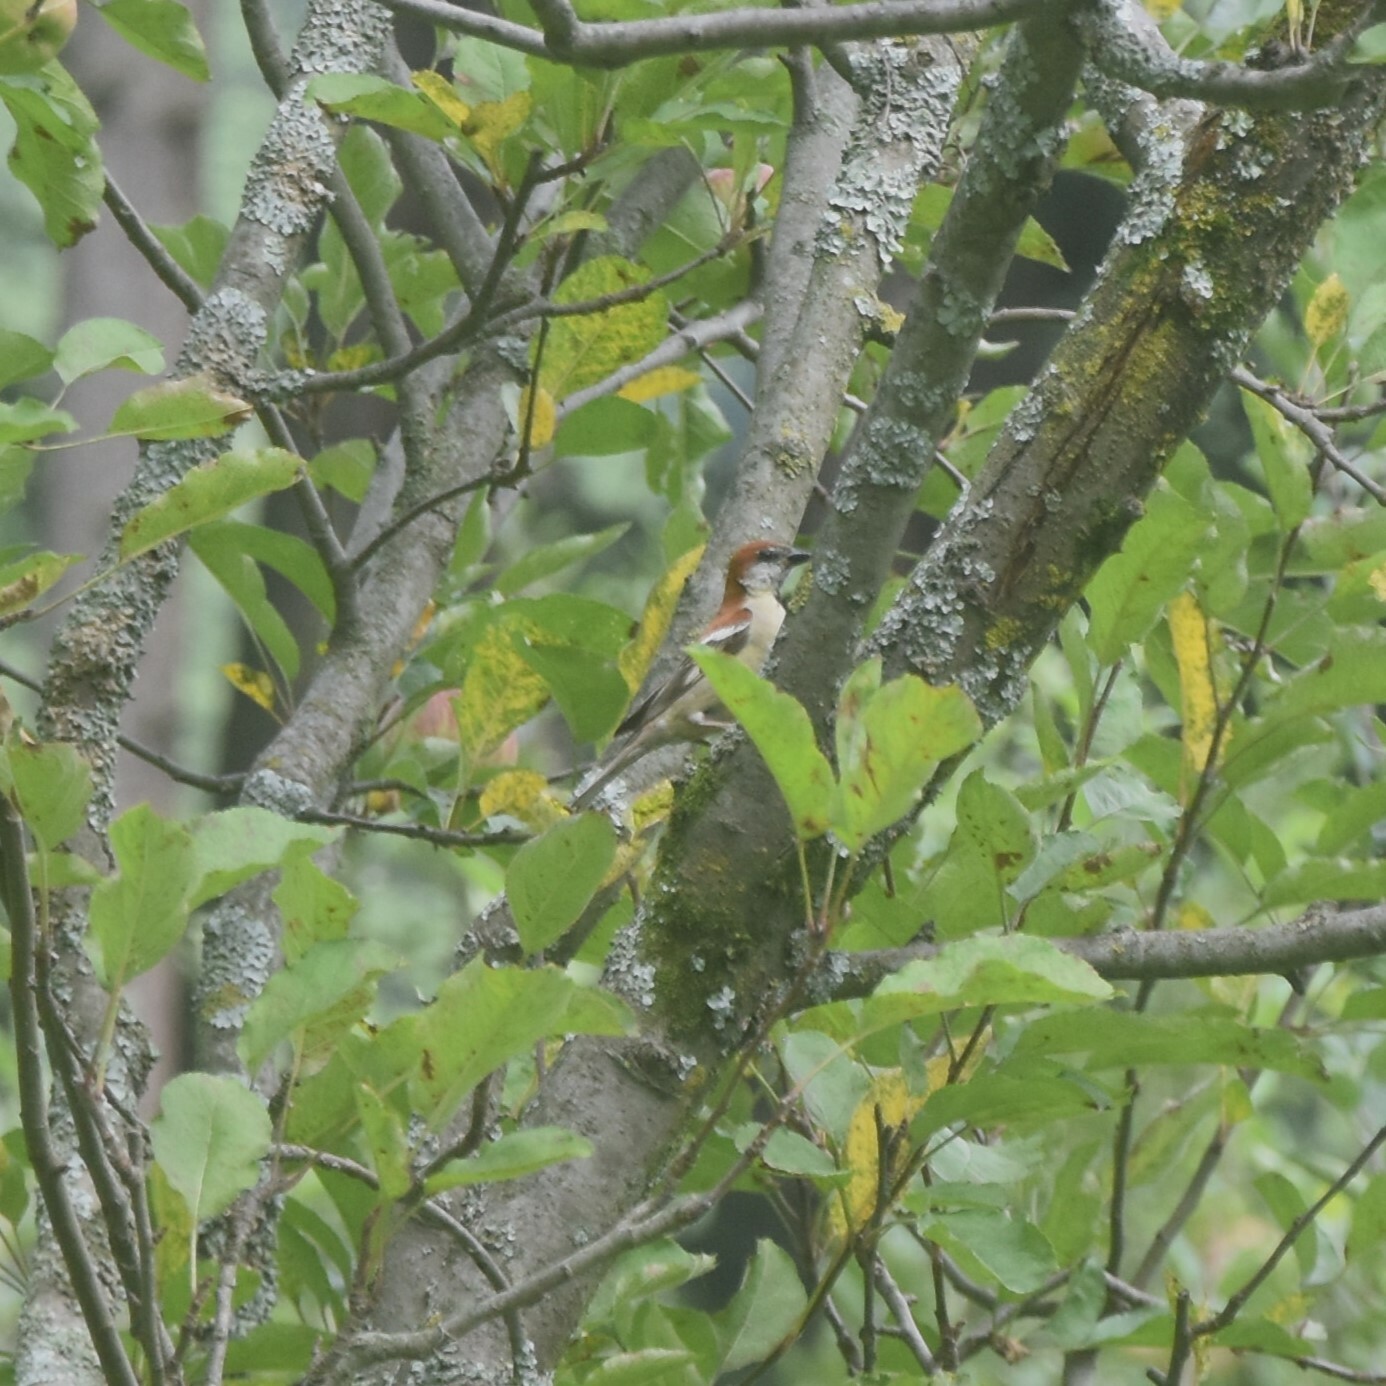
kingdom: Animalia
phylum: Chordata
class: Aves
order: Passeriformes
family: Passeridae
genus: Passer
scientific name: Passer cinnamomeus
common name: Russet sparrow
